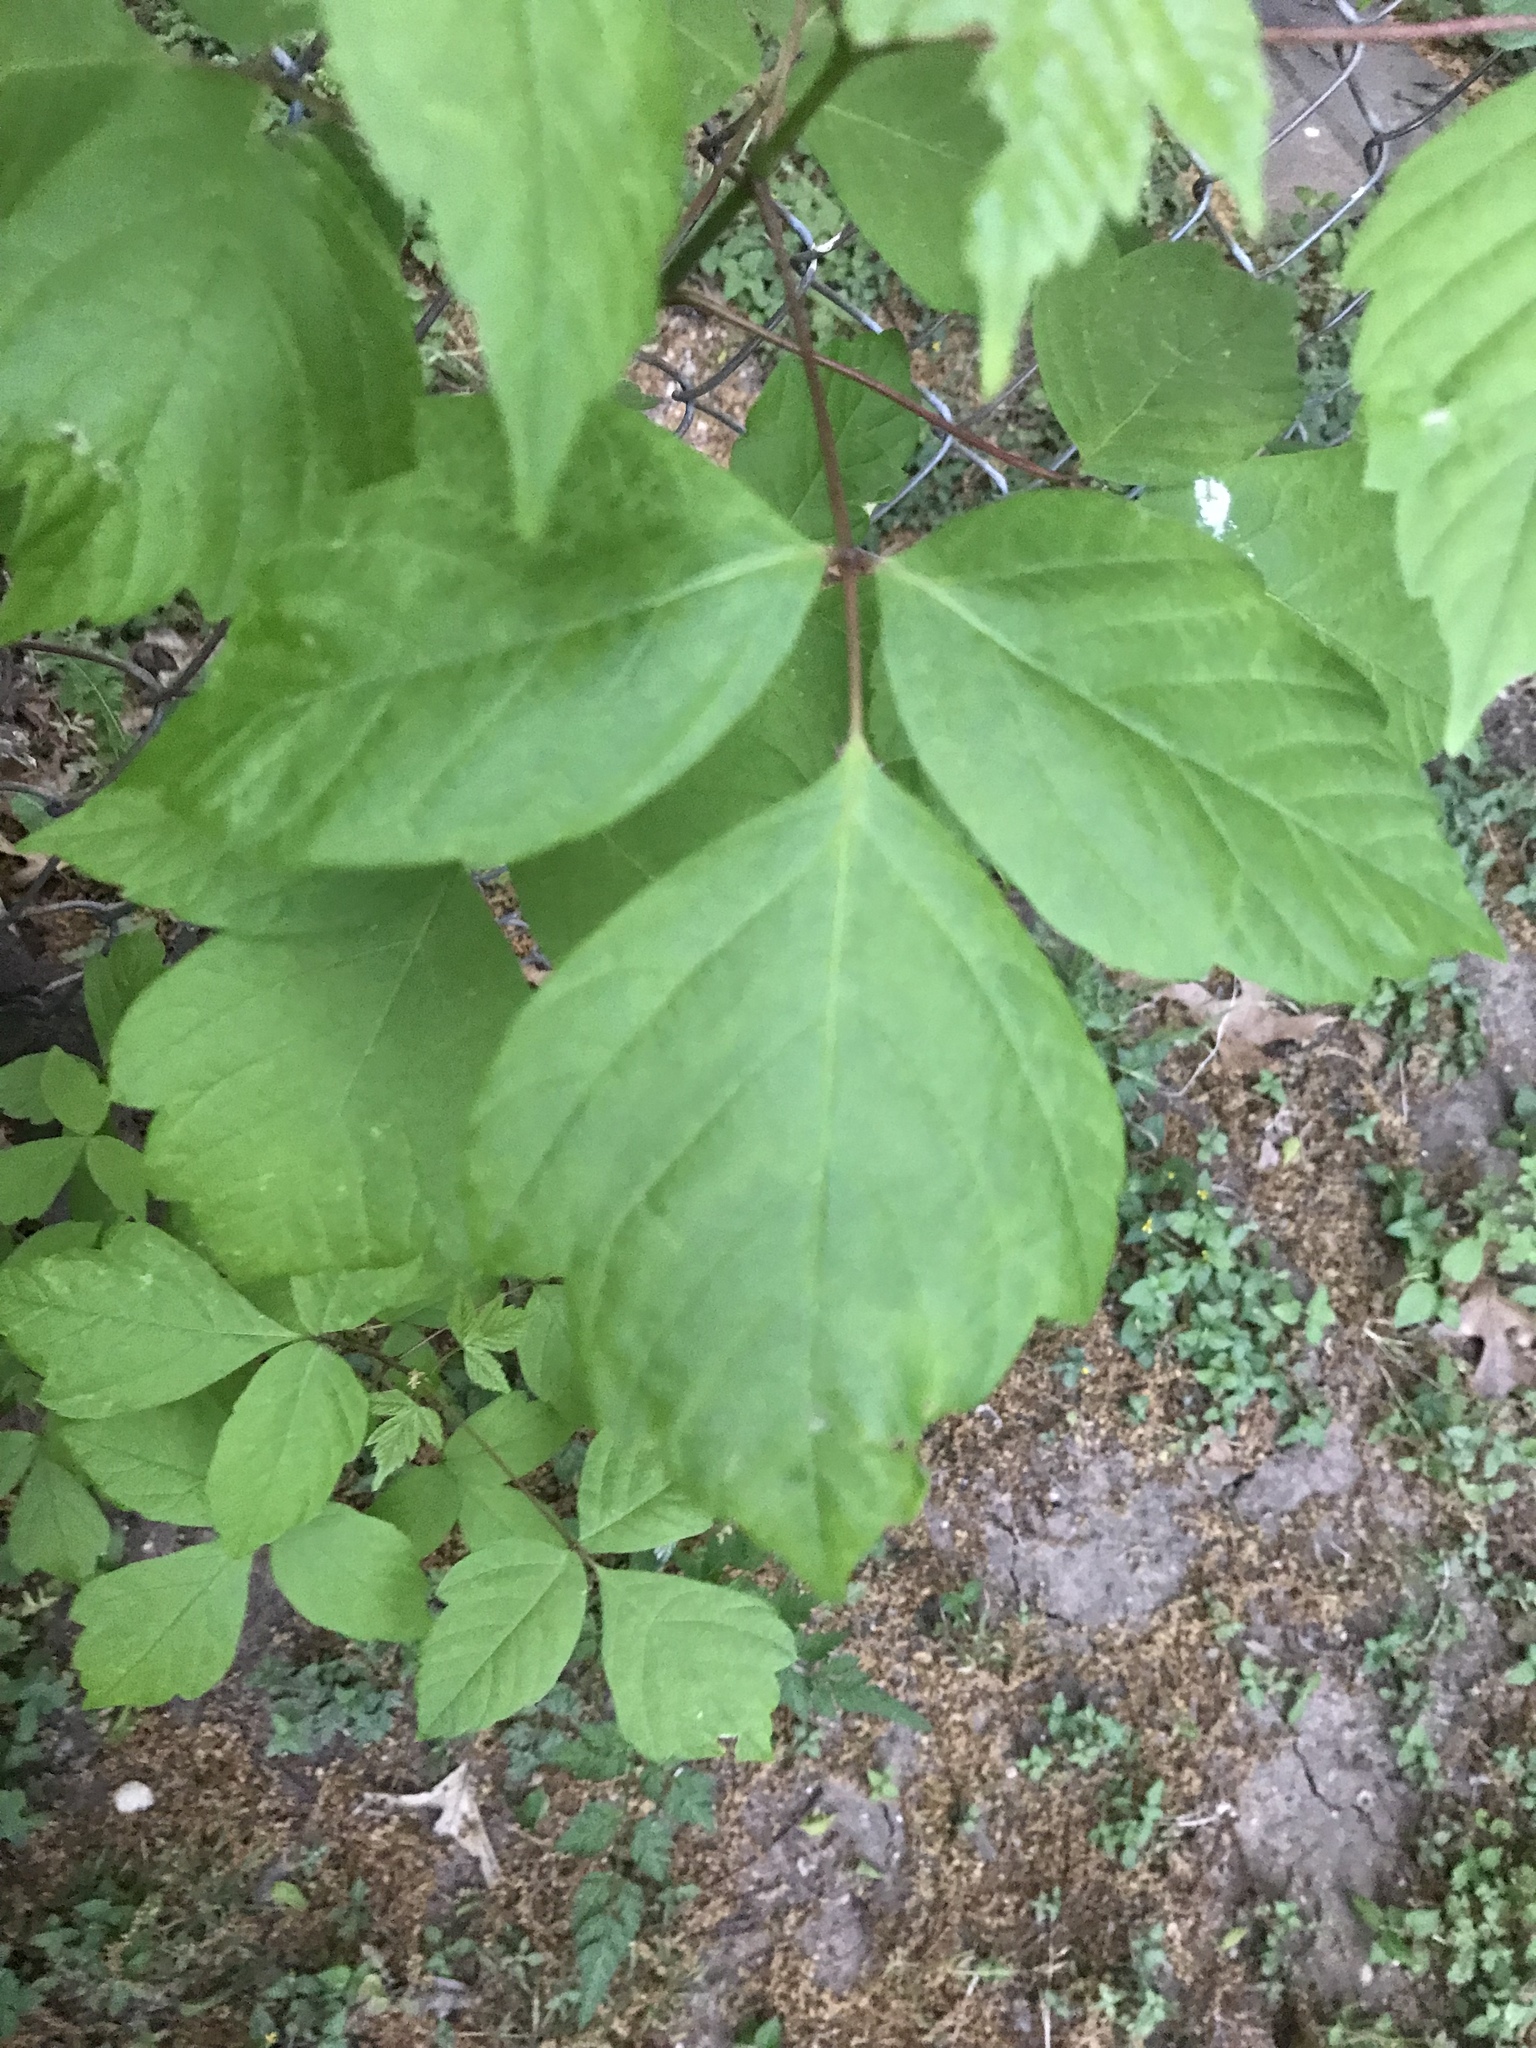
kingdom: Plantae
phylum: Tracheophyta
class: Magnoliopsida
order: Sapindales
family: Sapindaceae
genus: Acer
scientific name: Acer negundo
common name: Ashleaf maple
